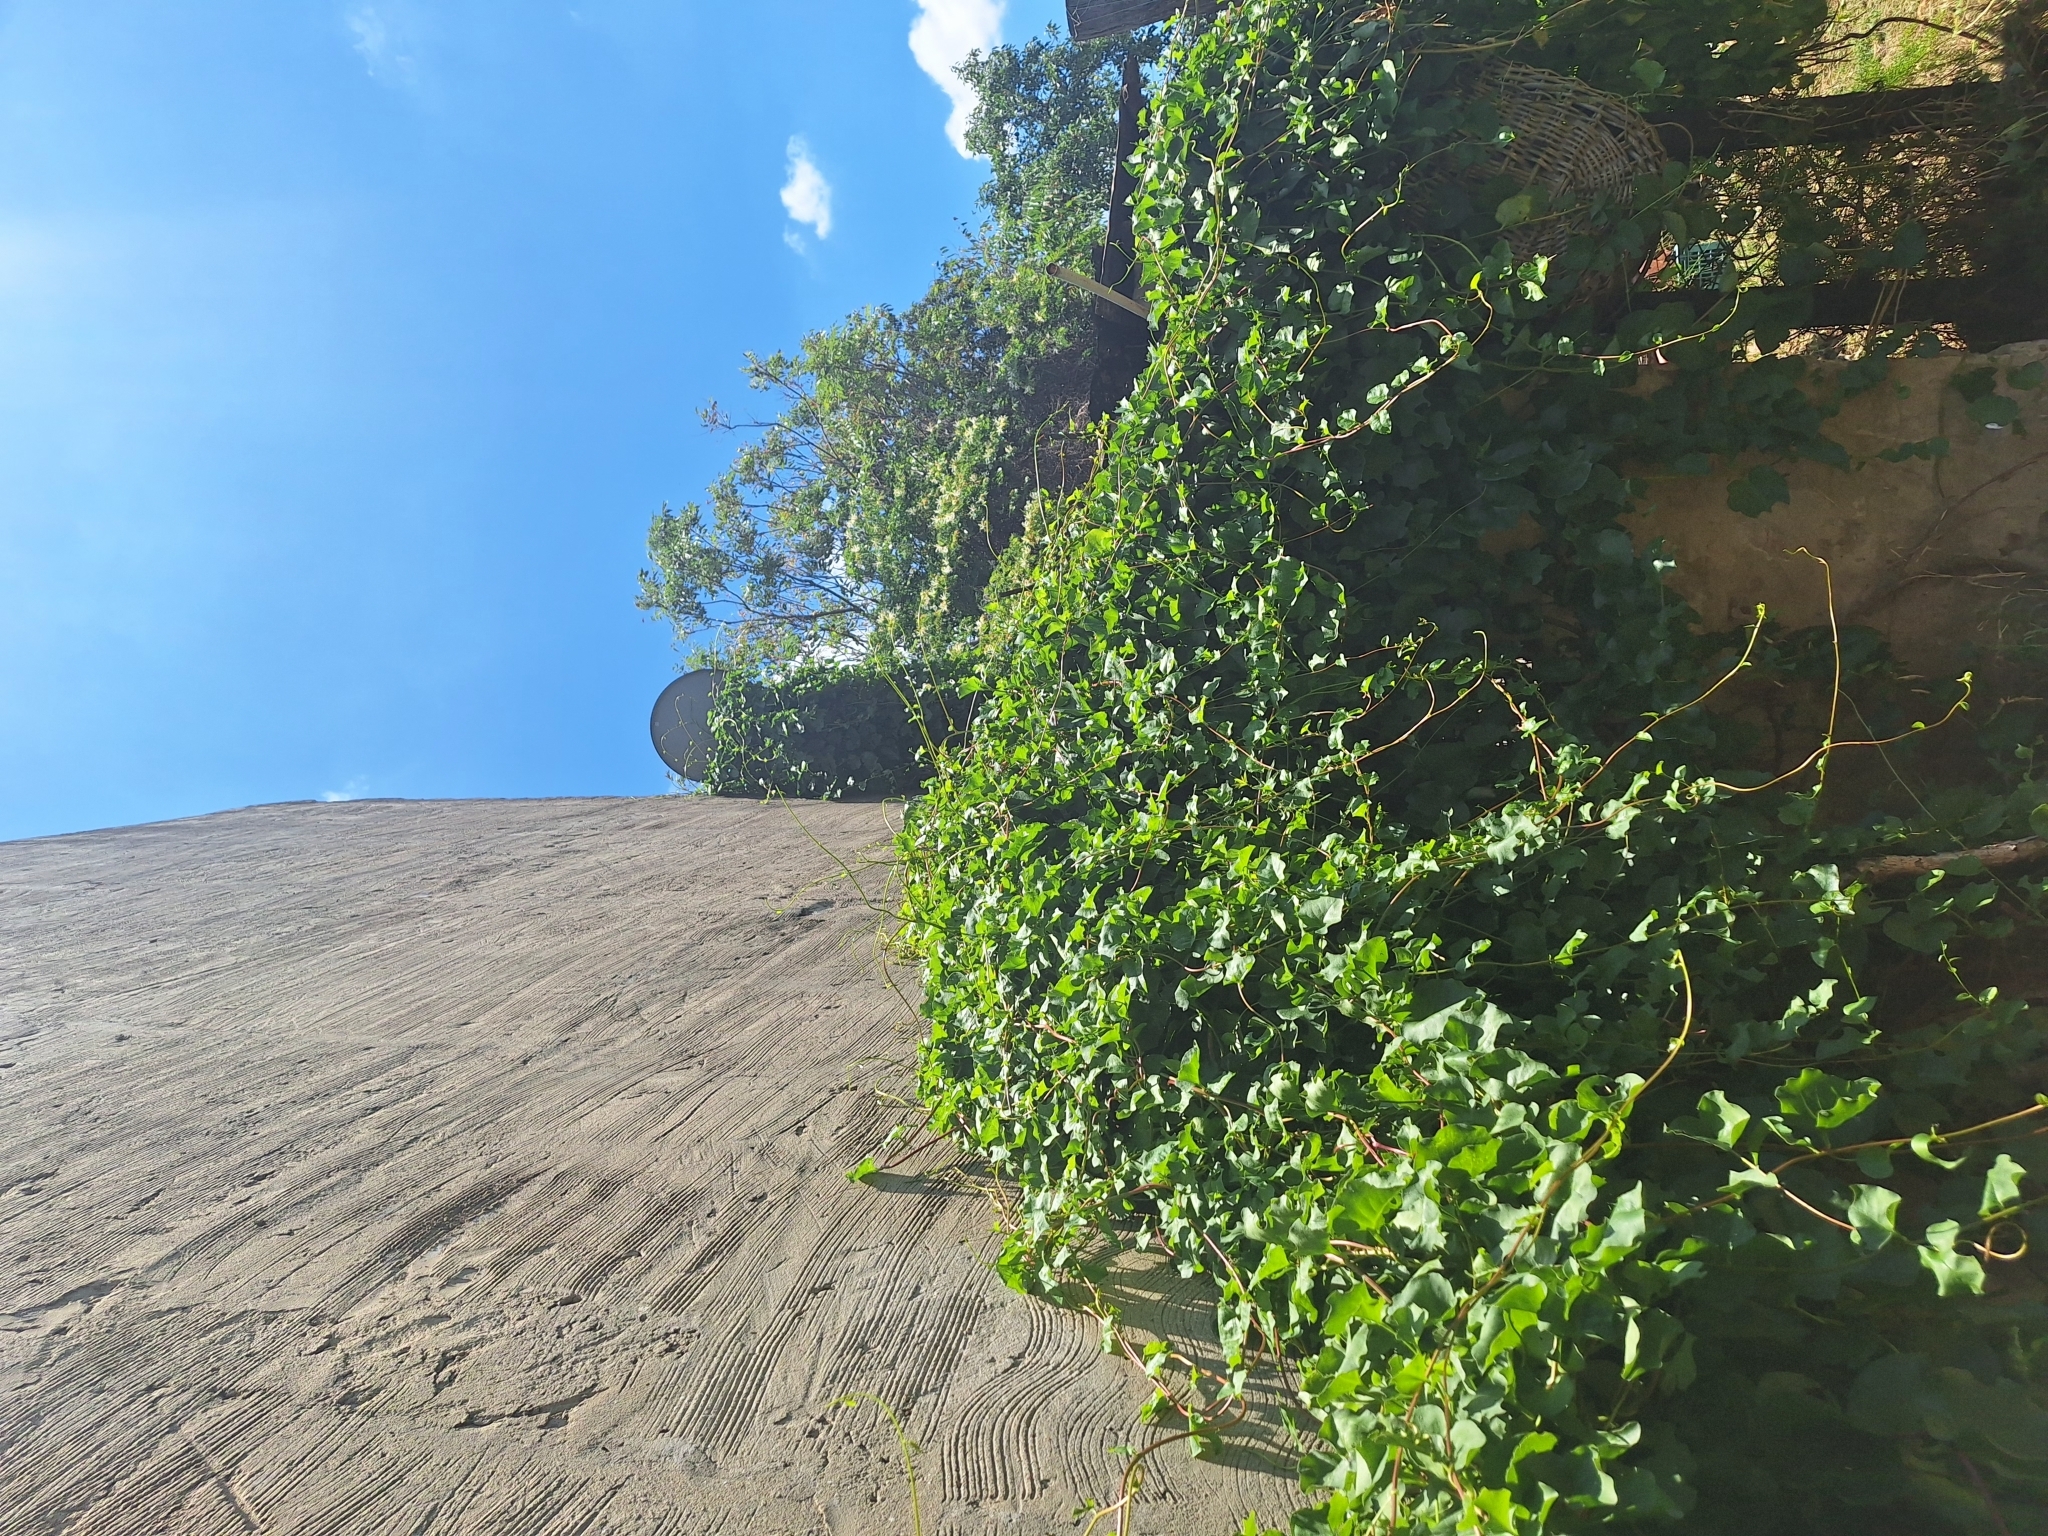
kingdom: Plantae
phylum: Tracheophyta
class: Magnoliopsida
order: Caryophyllales
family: Basellaceae
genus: Anredera
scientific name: Anredera cordifolia
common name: Heartleaf madeiravine
